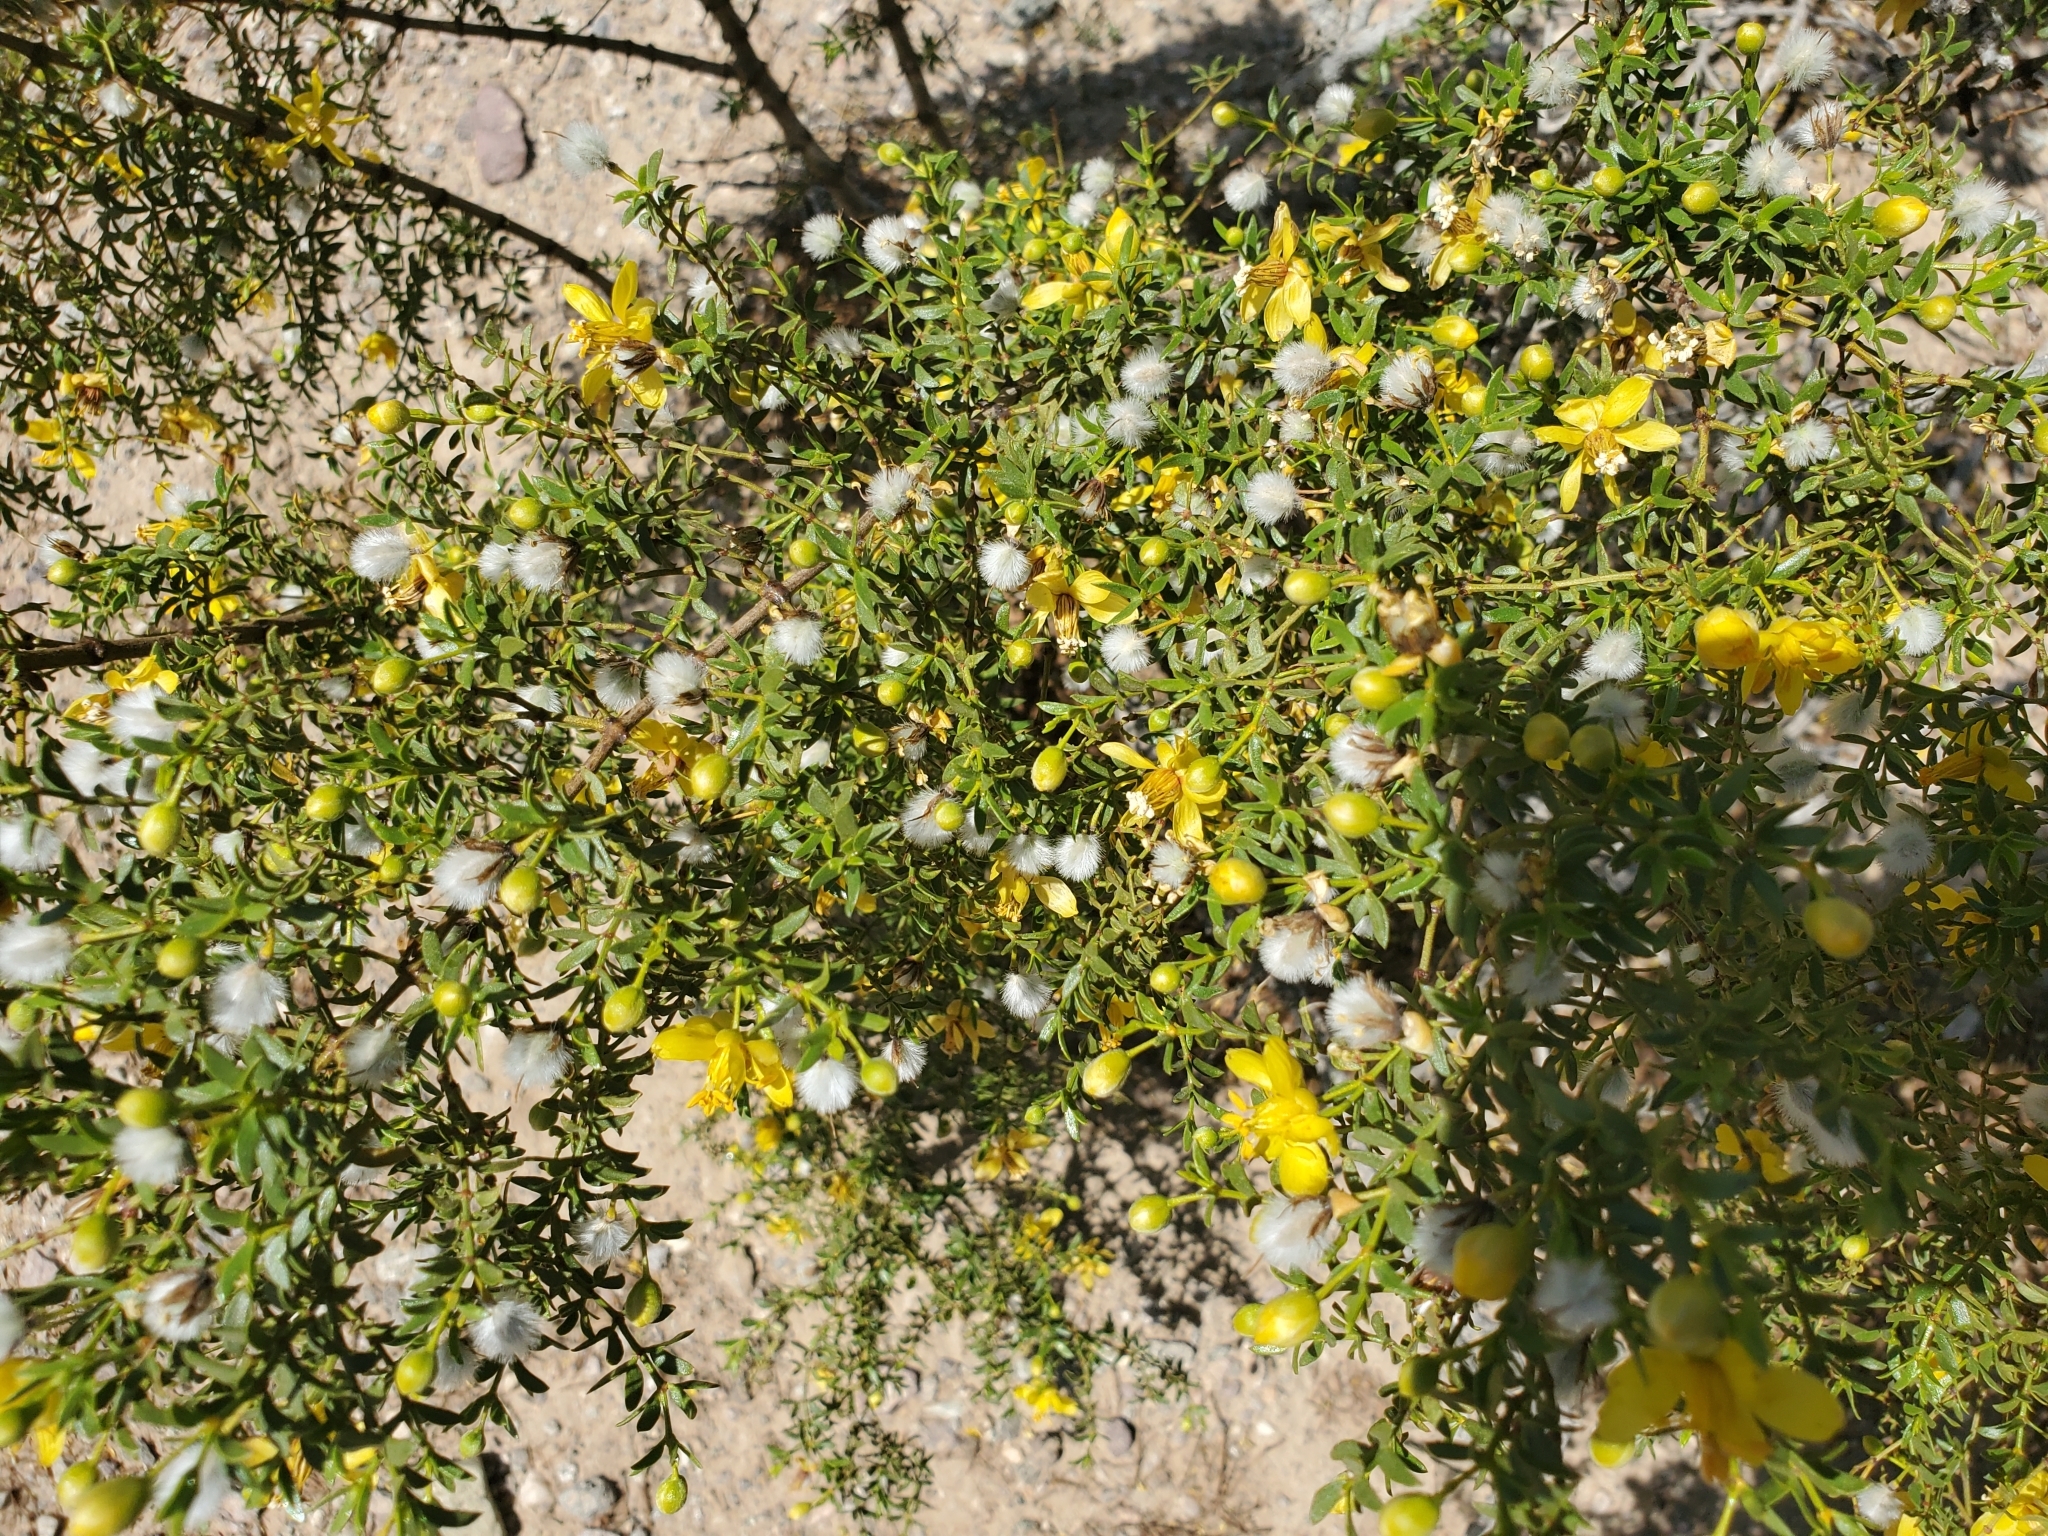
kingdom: Plantae
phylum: Tracheophyta
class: Magnoliopsida
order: Zygophyllales
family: Zygophyllaceae
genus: Larrea
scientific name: Larrea tridentata
